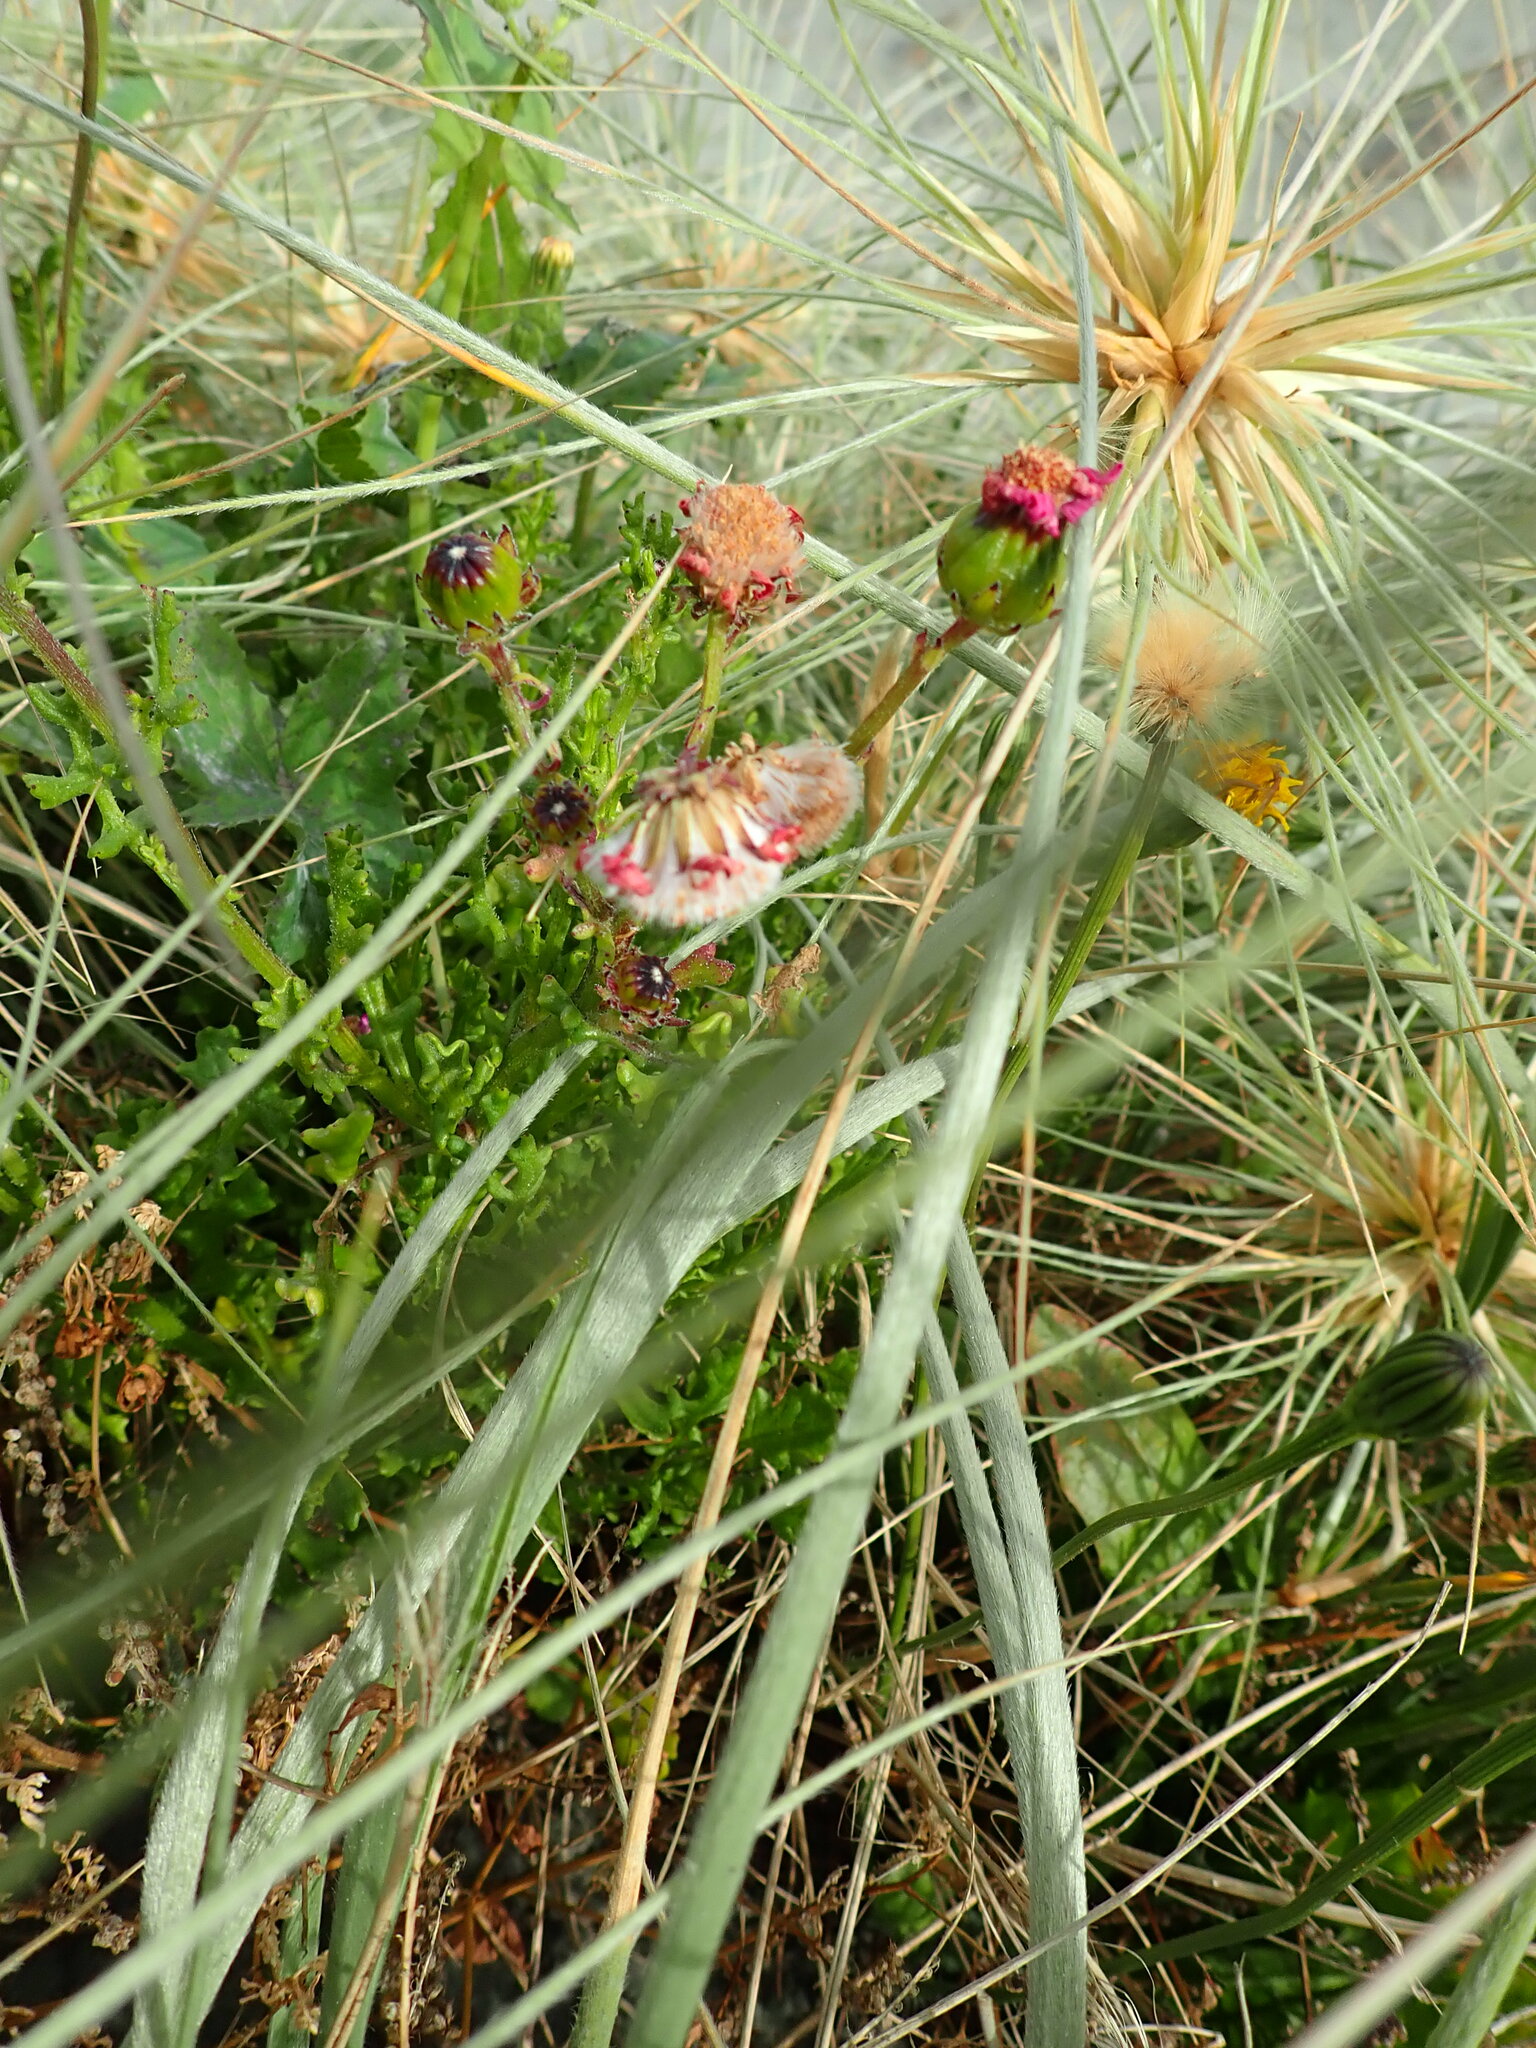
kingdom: Plantae
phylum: Tracheophyta
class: Magnoliopsida
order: Asterales
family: Asteraceae
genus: Senecio
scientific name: Senecio elegans
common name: Purple groundsel
